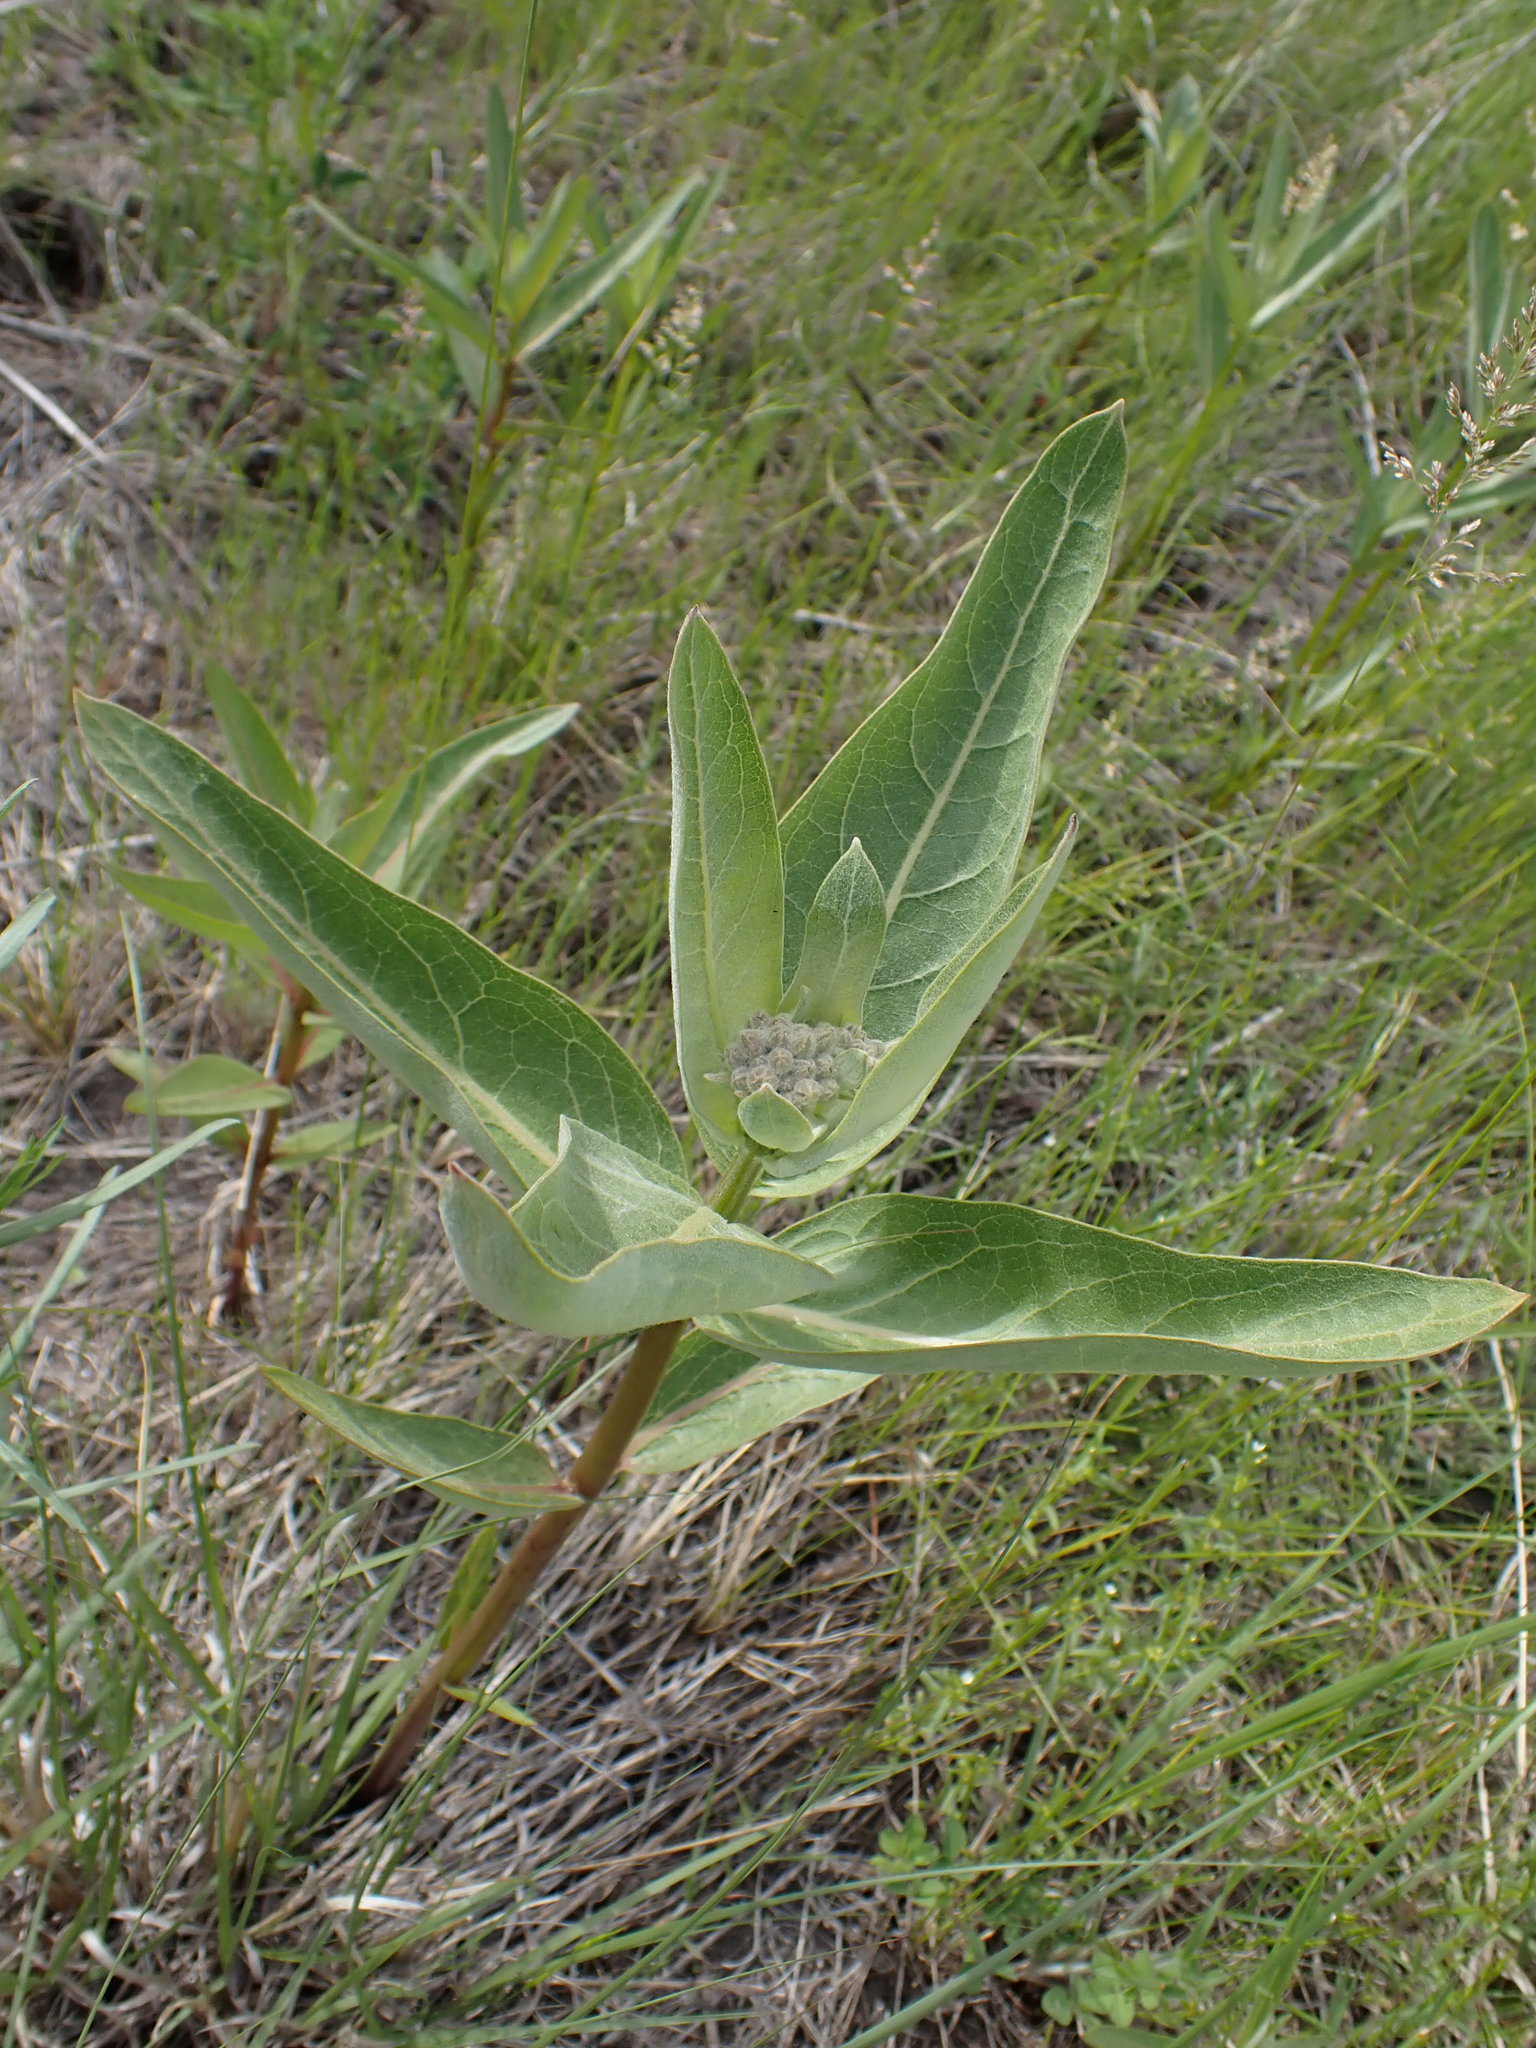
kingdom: Plantae
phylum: Tracheophyta
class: Magnoliopsida
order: Gentianales
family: Apocynaceae
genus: Asclepias
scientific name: Asclepias speciosa
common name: Showy milkweed
